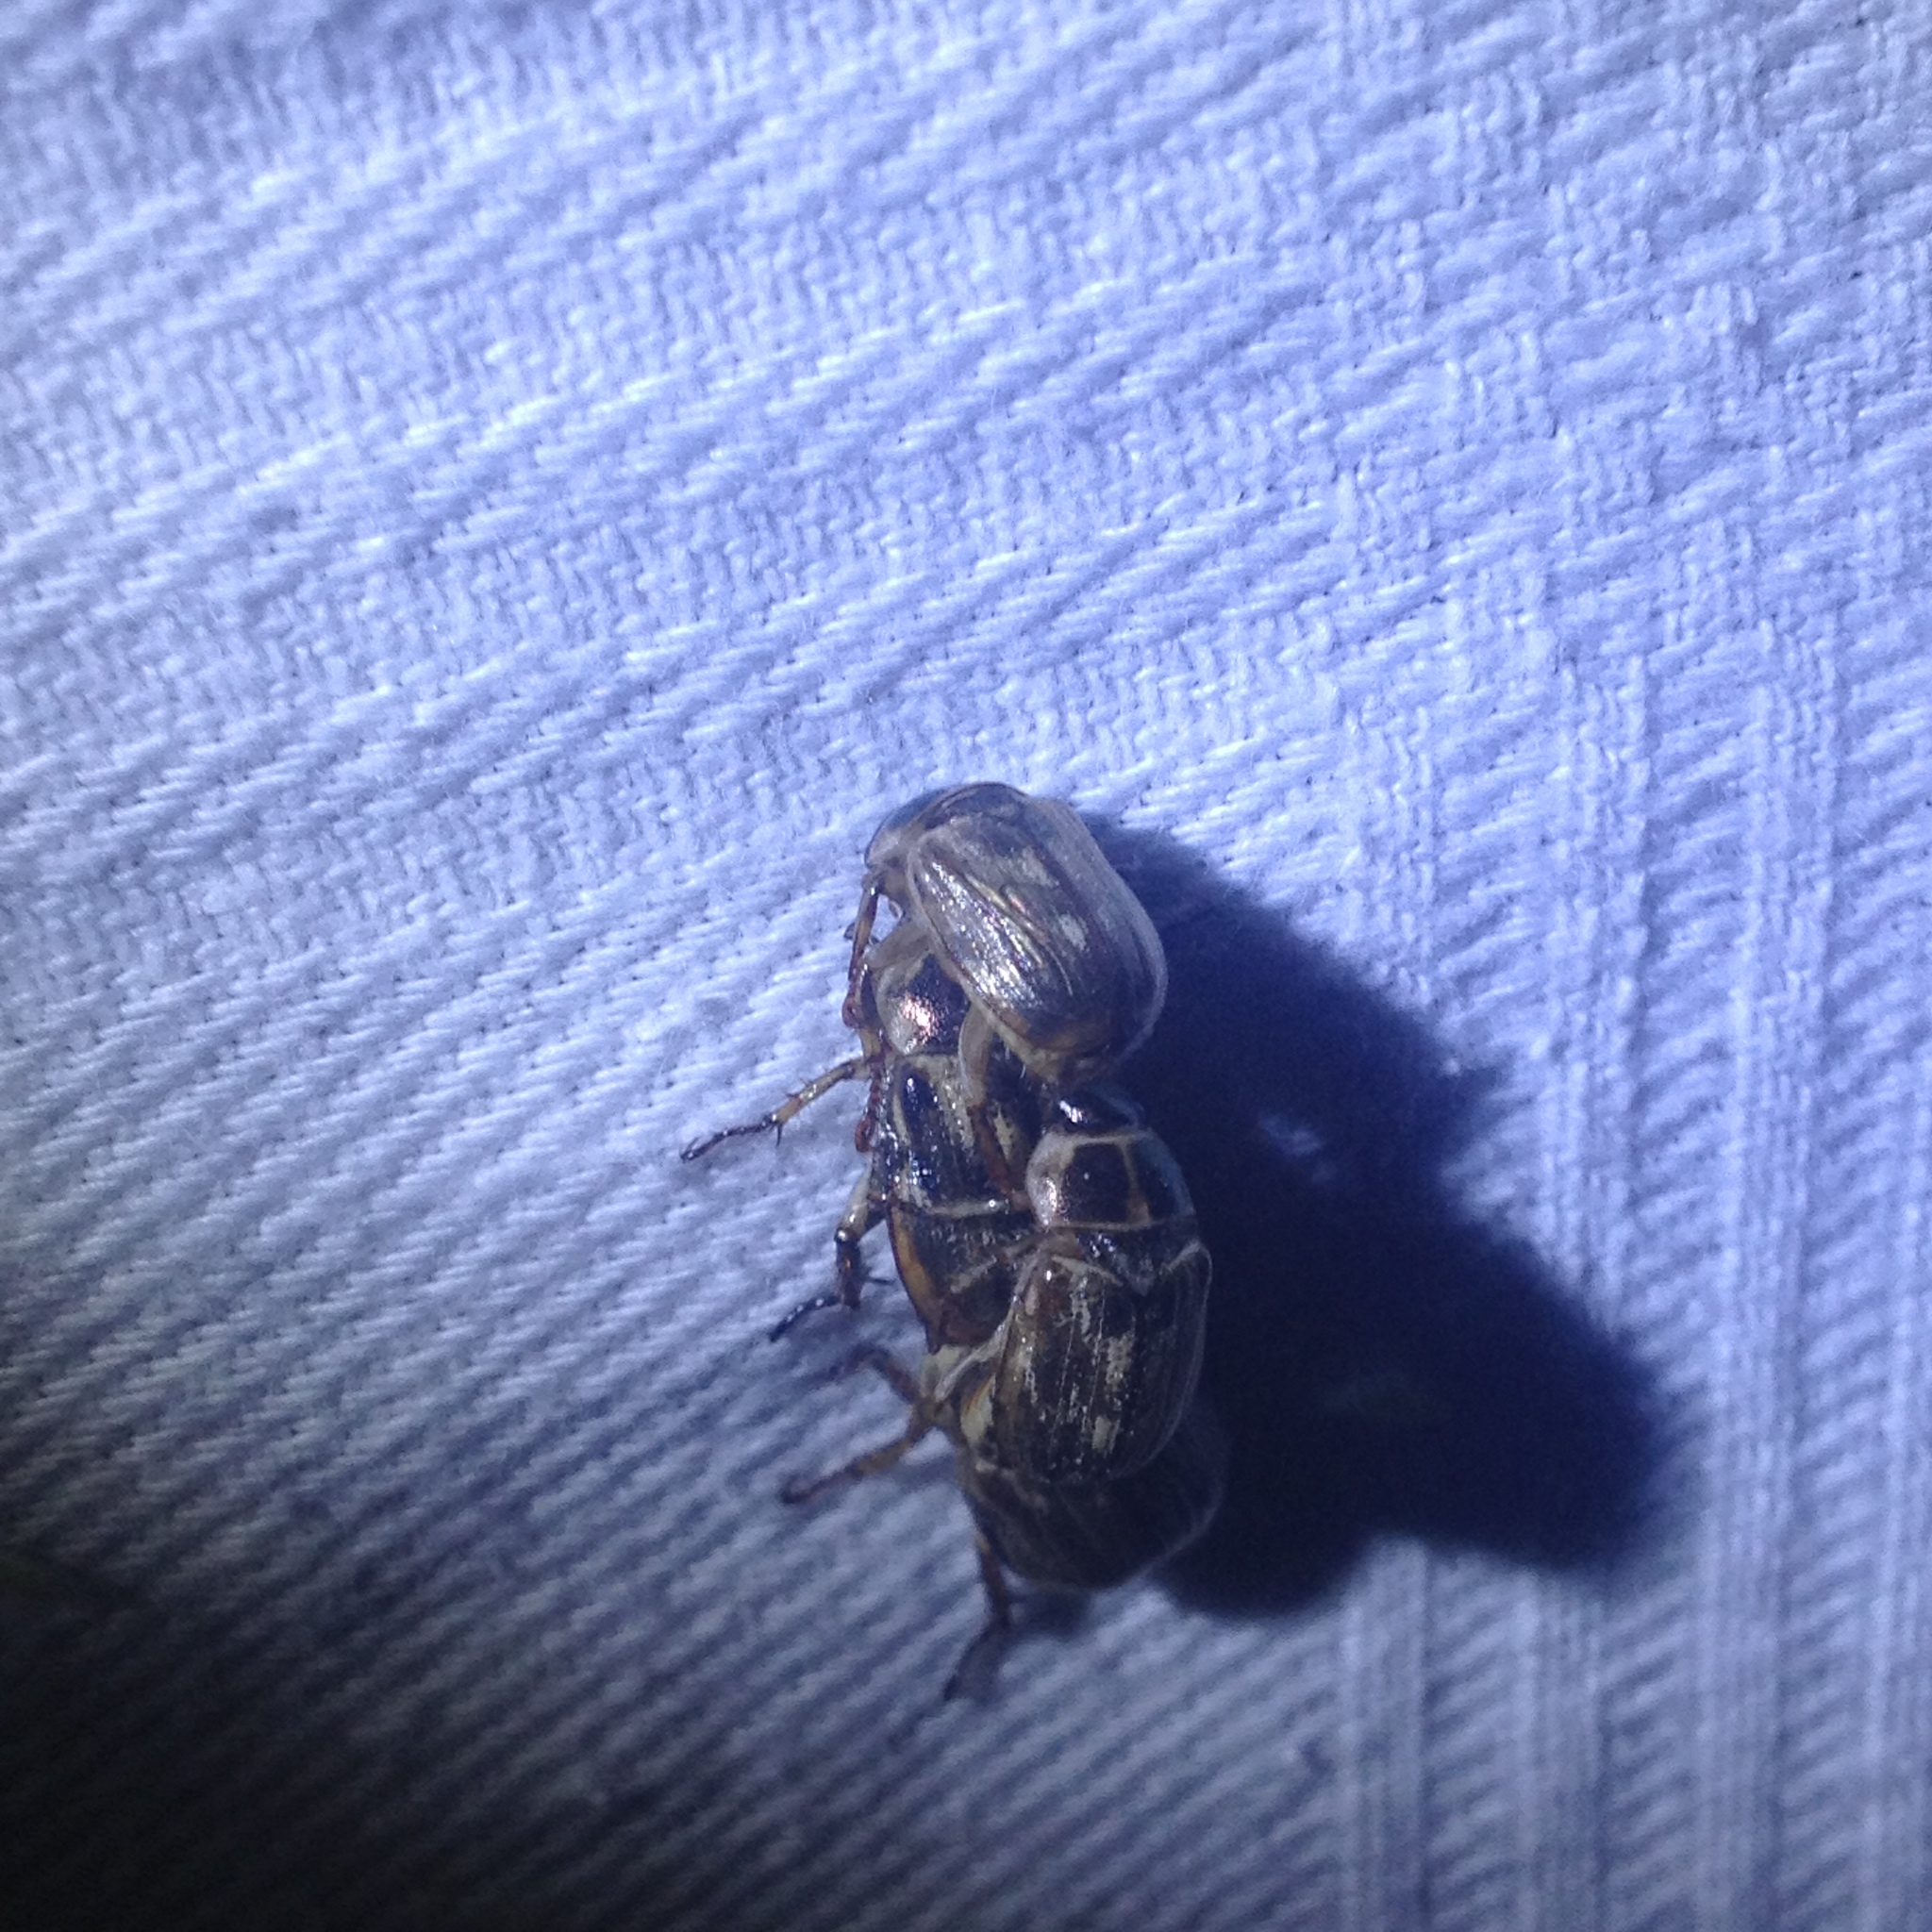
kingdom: Animalia
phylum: Arthropoda
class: Insecta
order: Coleoptera
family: Scarabaeidae
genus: Exomala
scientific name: Exomala orientalis
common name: Oriental beetle
